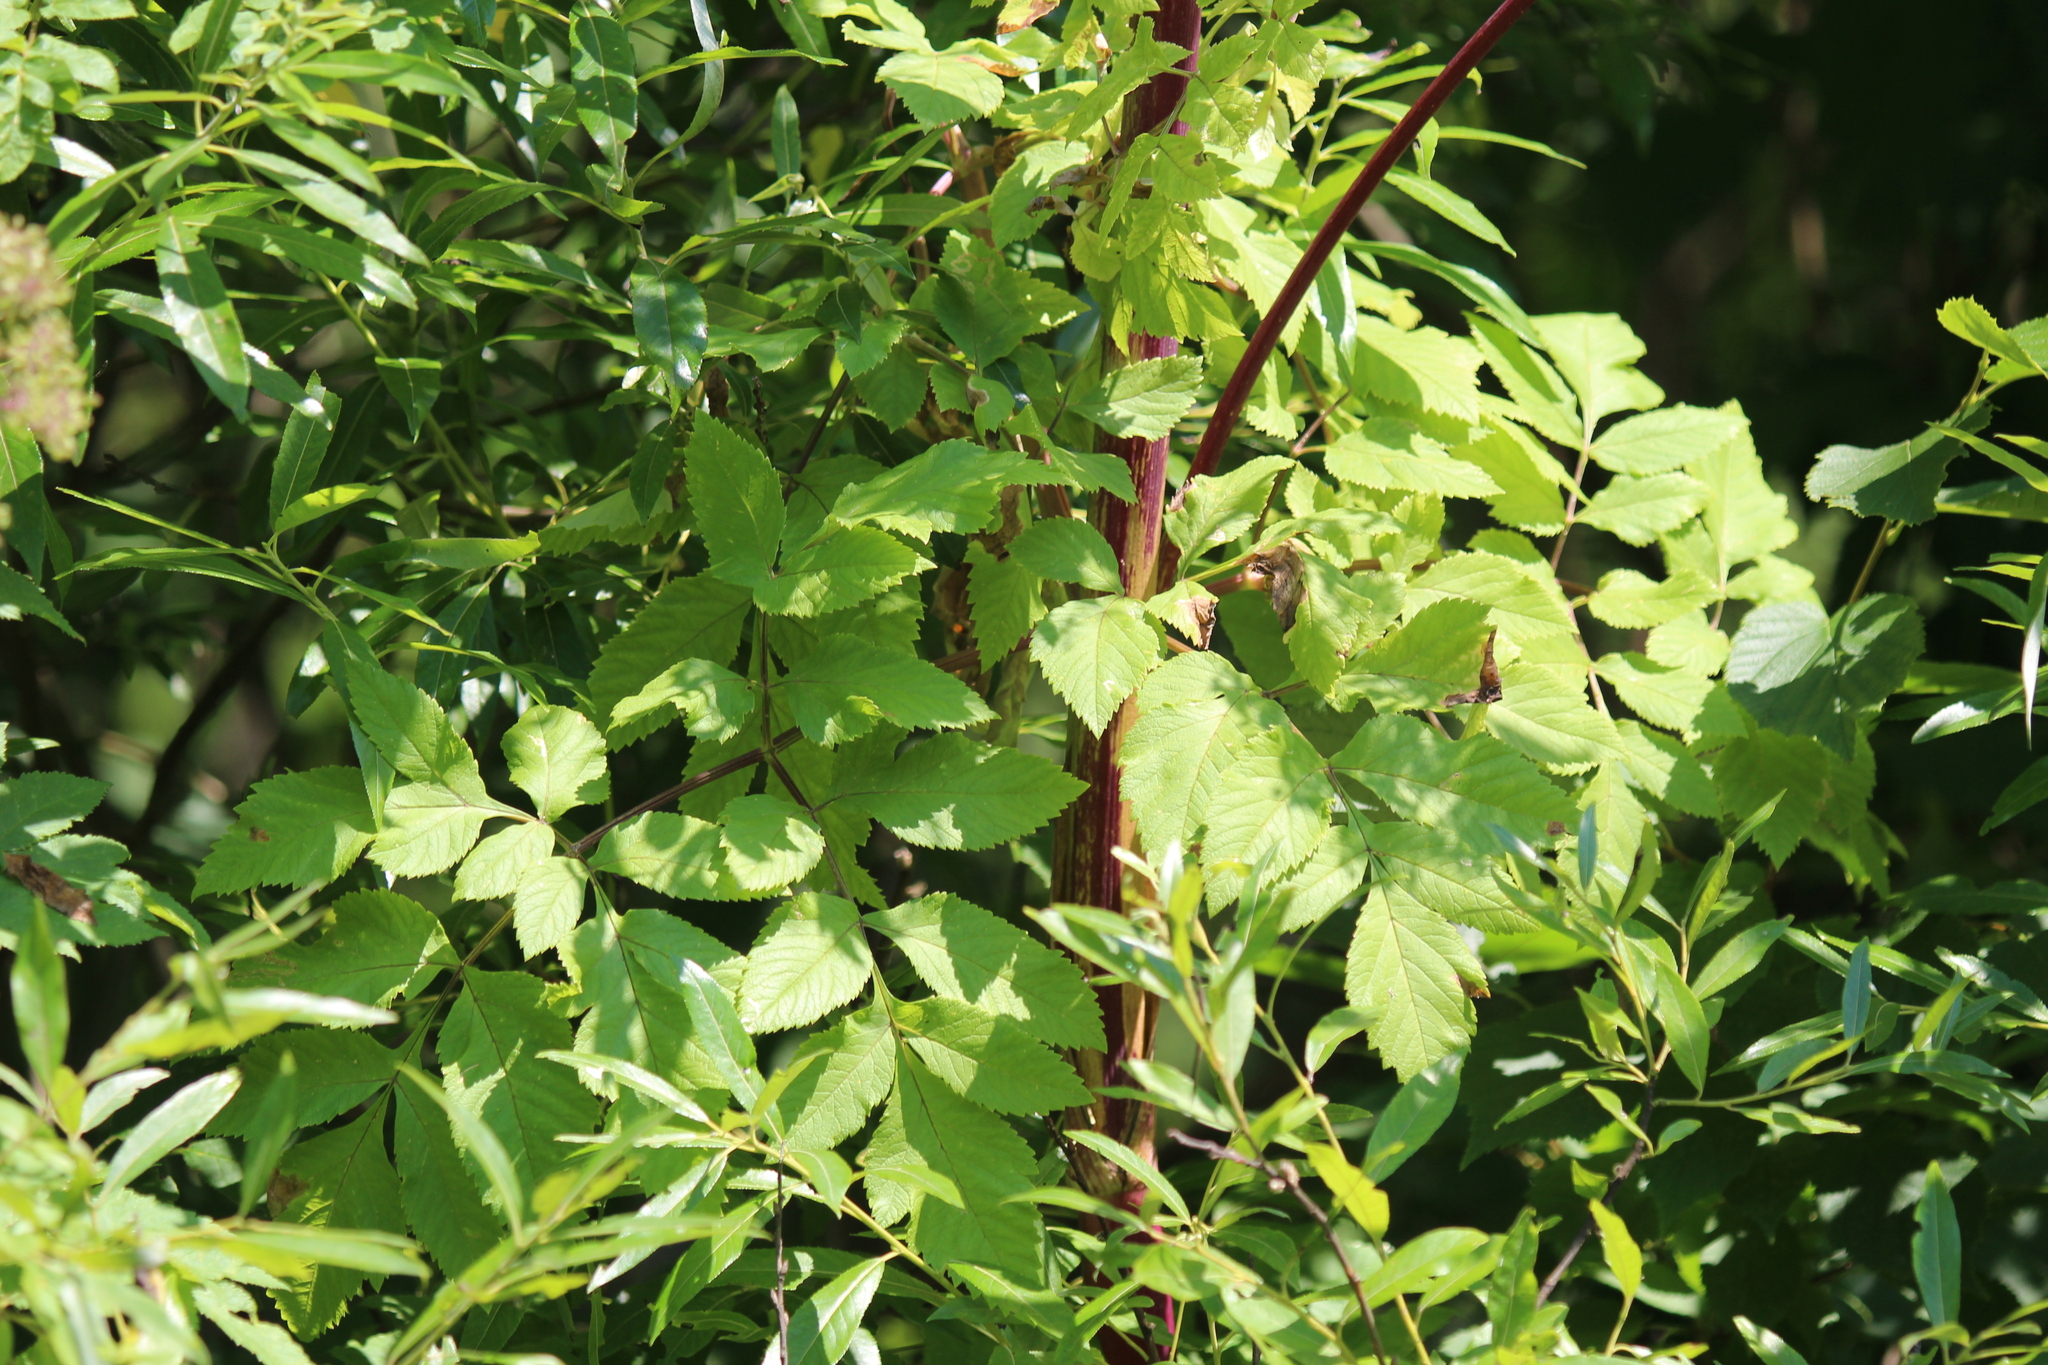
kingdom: Plantae
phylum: Tracheophyta
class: Magnoliopsida
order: Apiales
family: Apiaceae
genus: Angelica
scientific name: Angelica atropurpurea
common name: Great angelica
